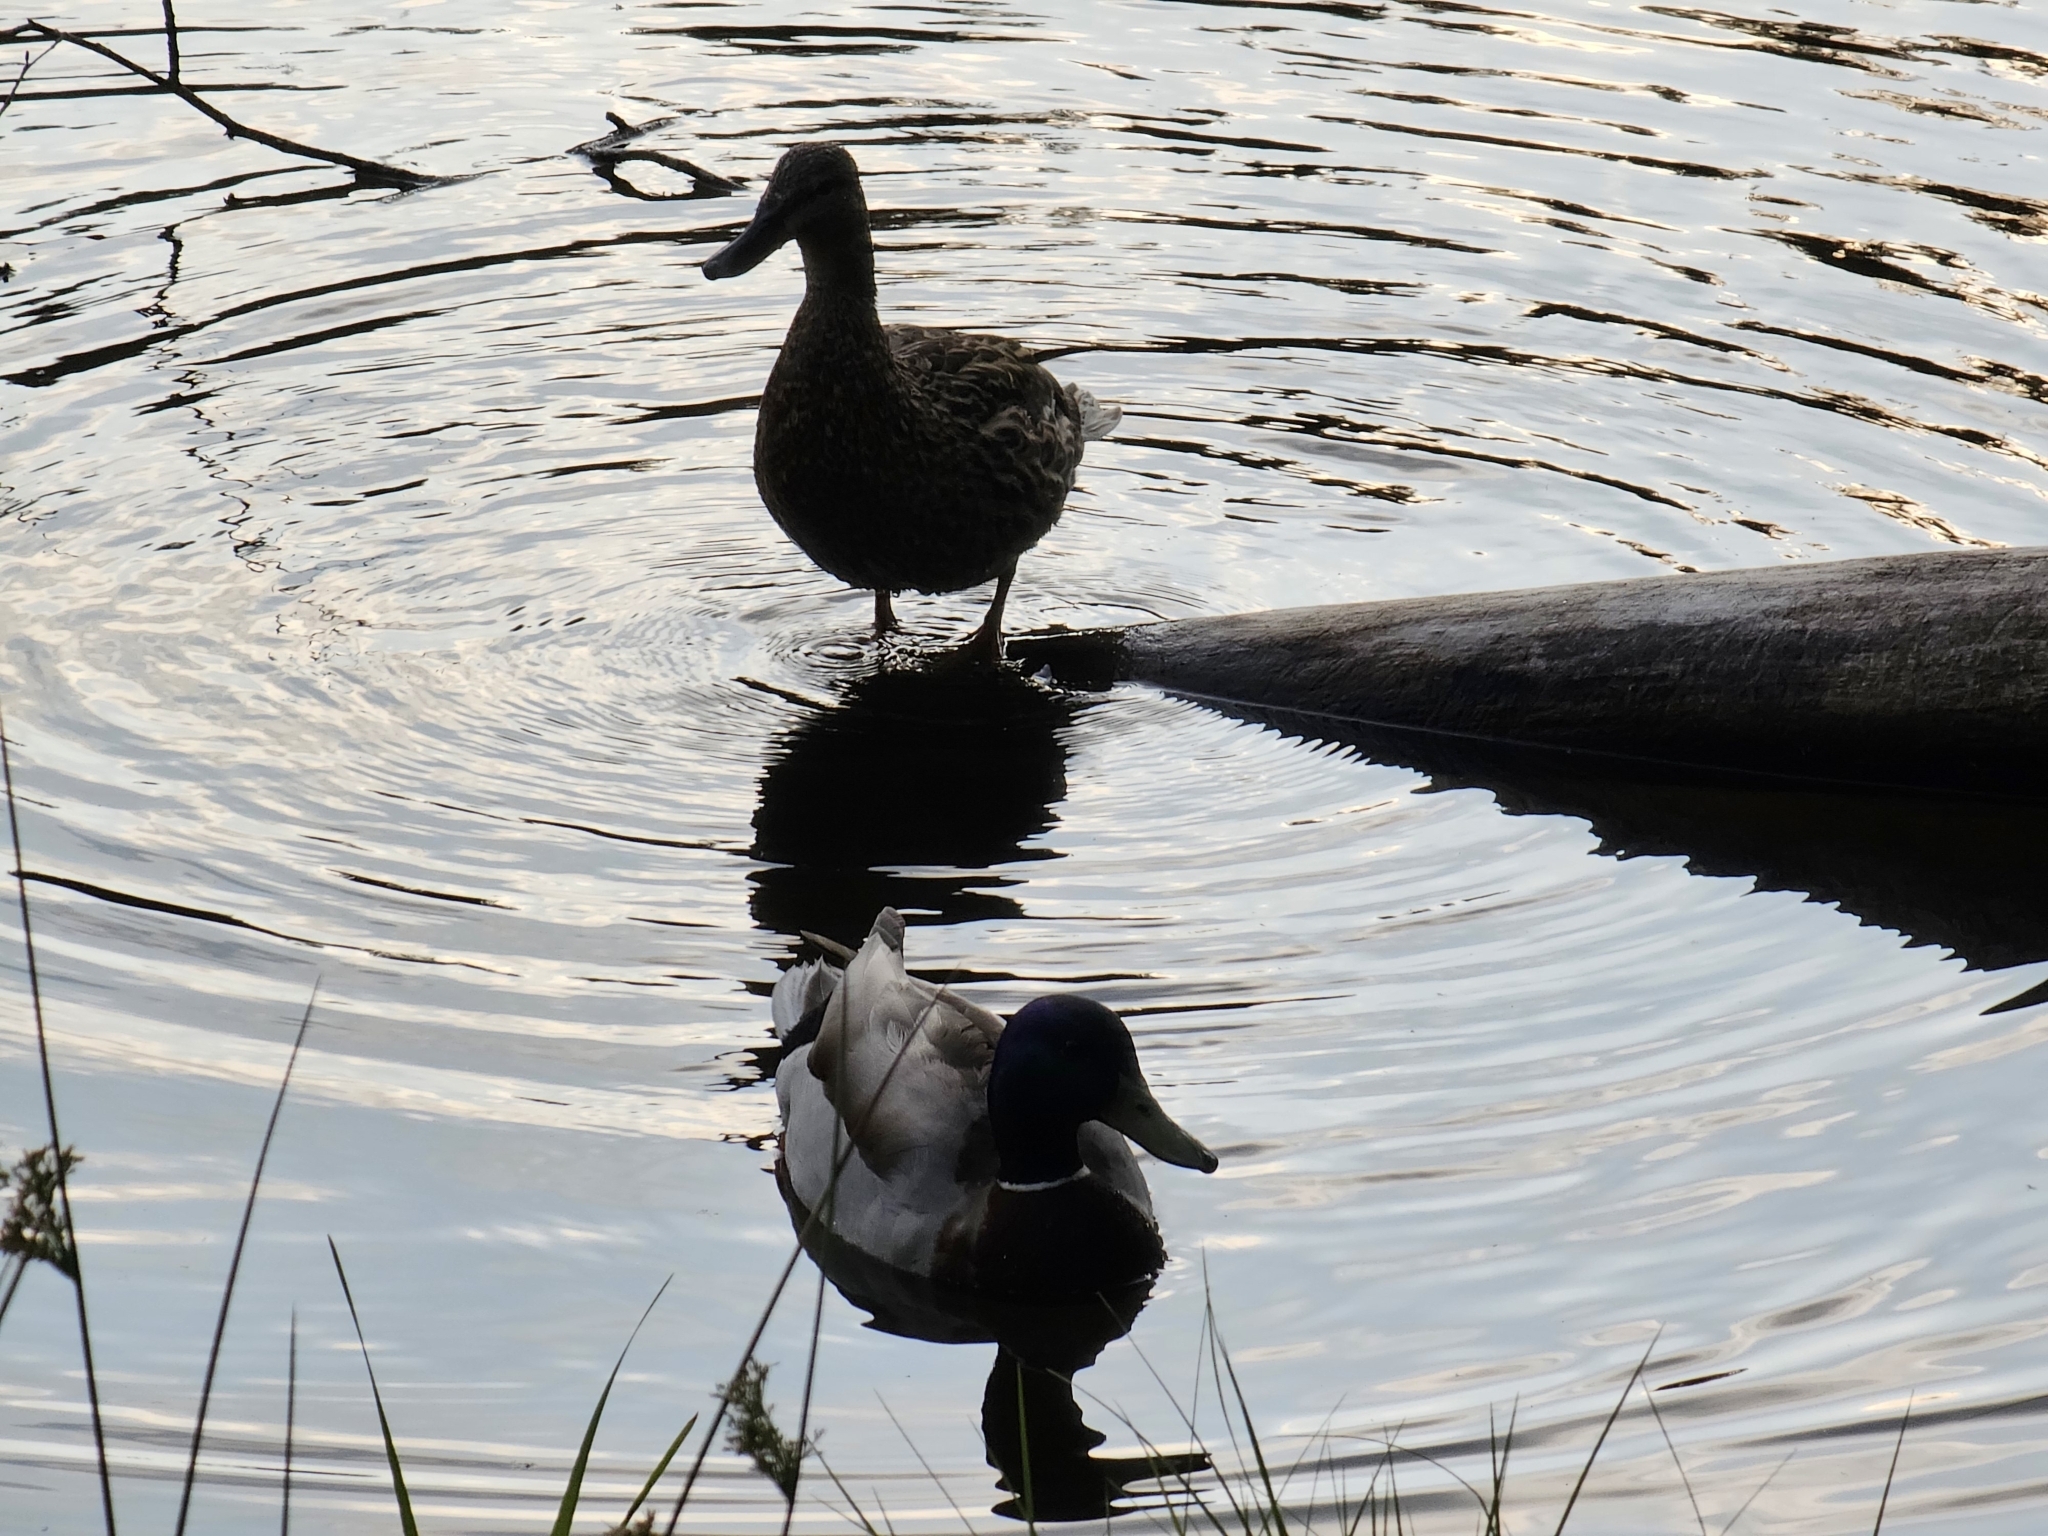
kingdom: Animalia
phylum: Chordata
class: Aves
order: Anseriformes
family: Anatidae
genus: Anas
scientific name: Anas platyrhynchos
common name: Mallard
